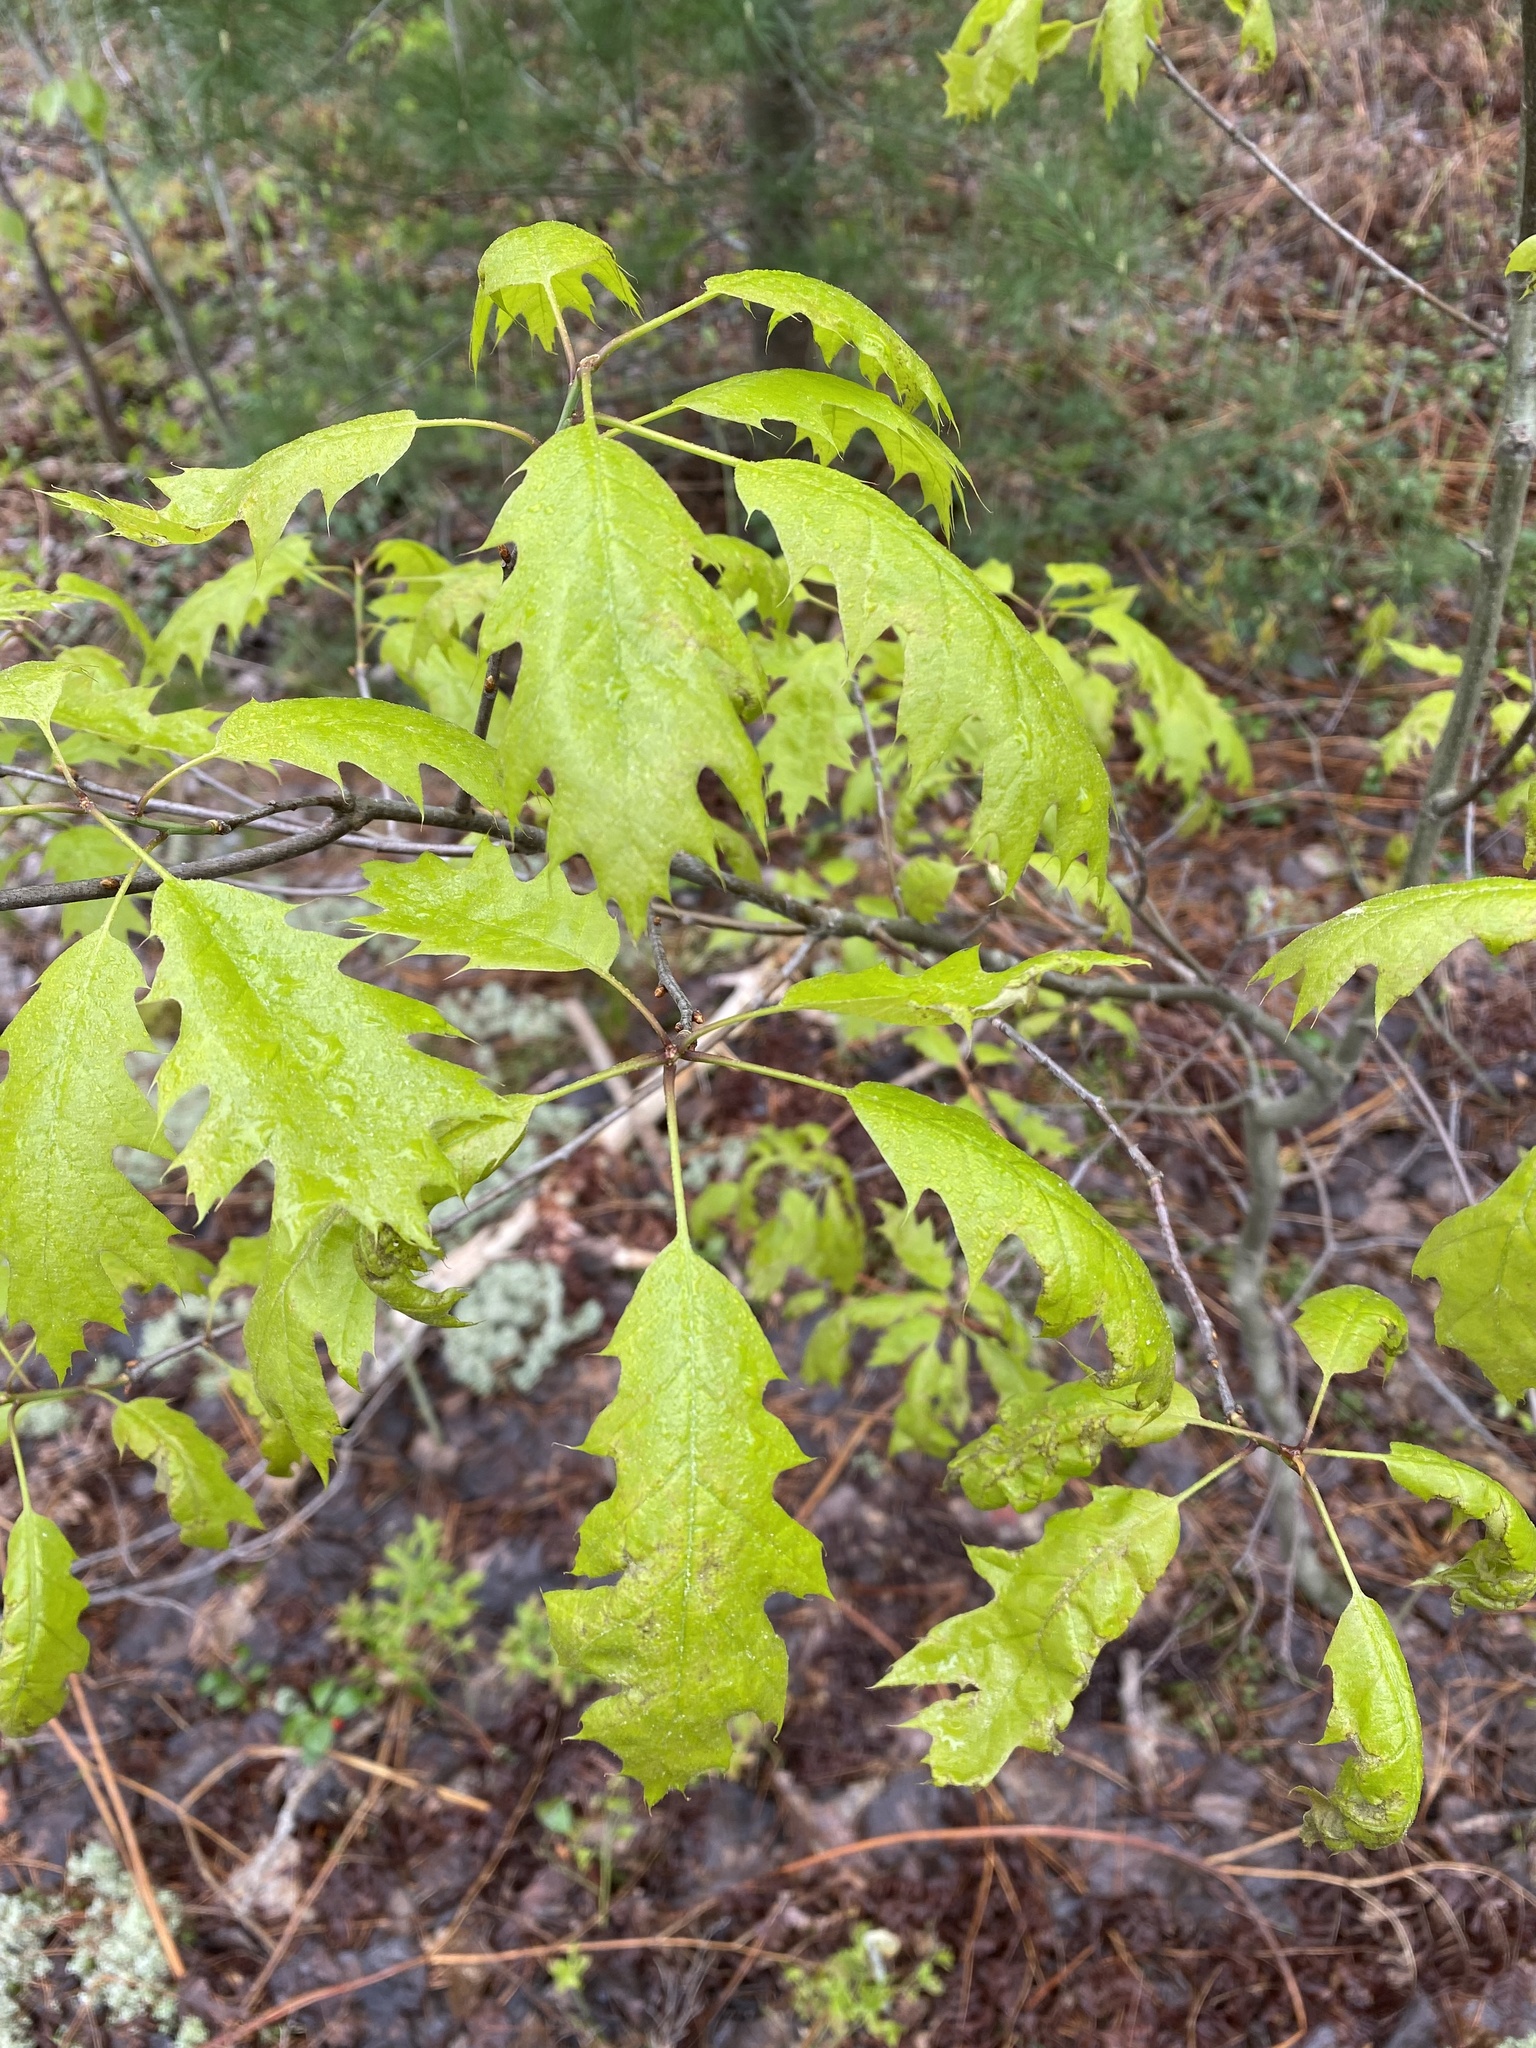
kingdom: Plantae
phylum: Tracheophyta
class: Magnoliopsida
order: Fagales
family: Fagaceae
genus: Quercus
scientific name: Quercus rubra
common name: Red oak
